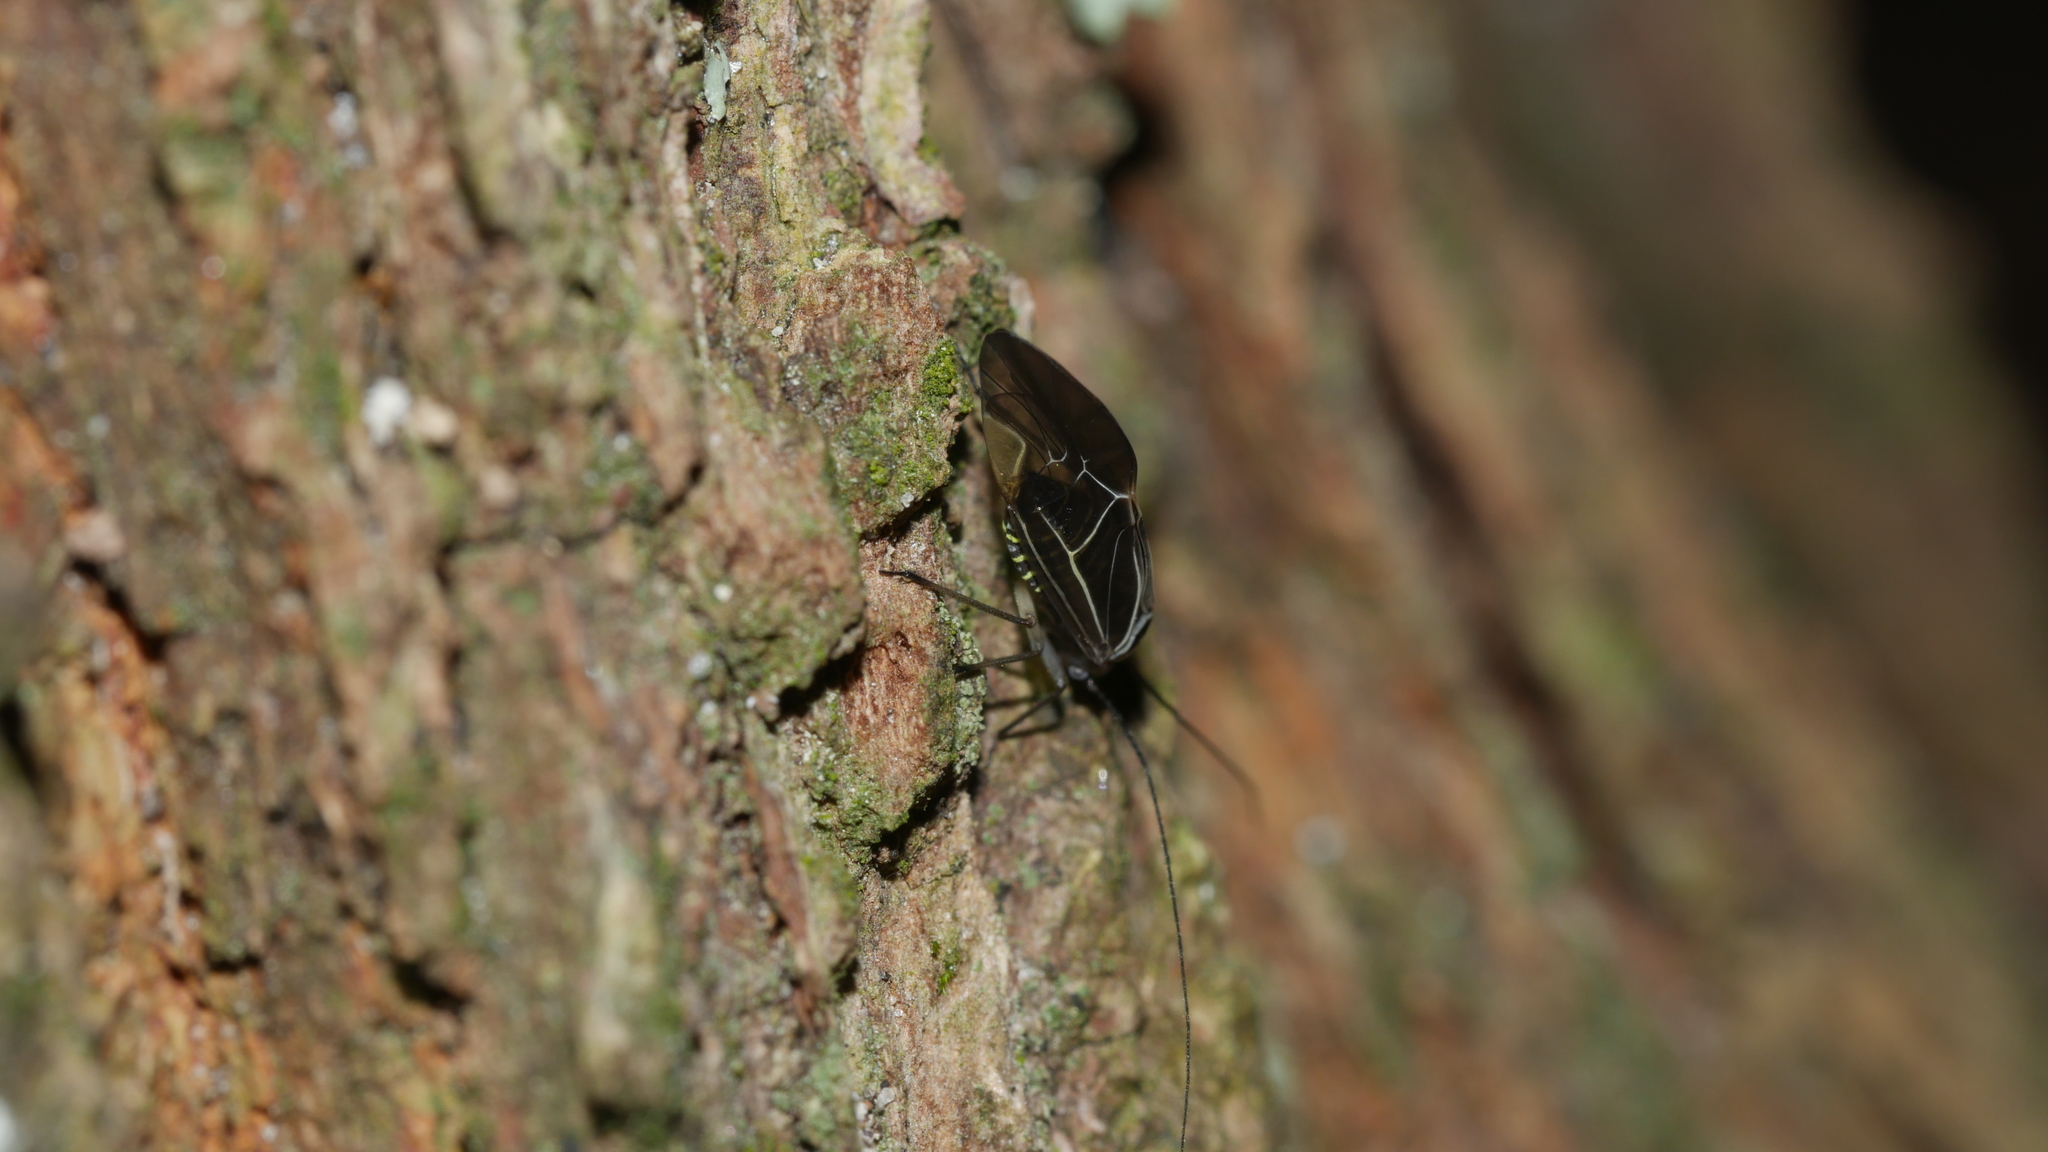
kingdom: Animalia
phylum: Arthropoda
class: Insecta
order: Psocodea
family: Psocidae
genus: Cerastipsocus
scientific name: Cerastipsocus venosus
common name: Tree cattle
